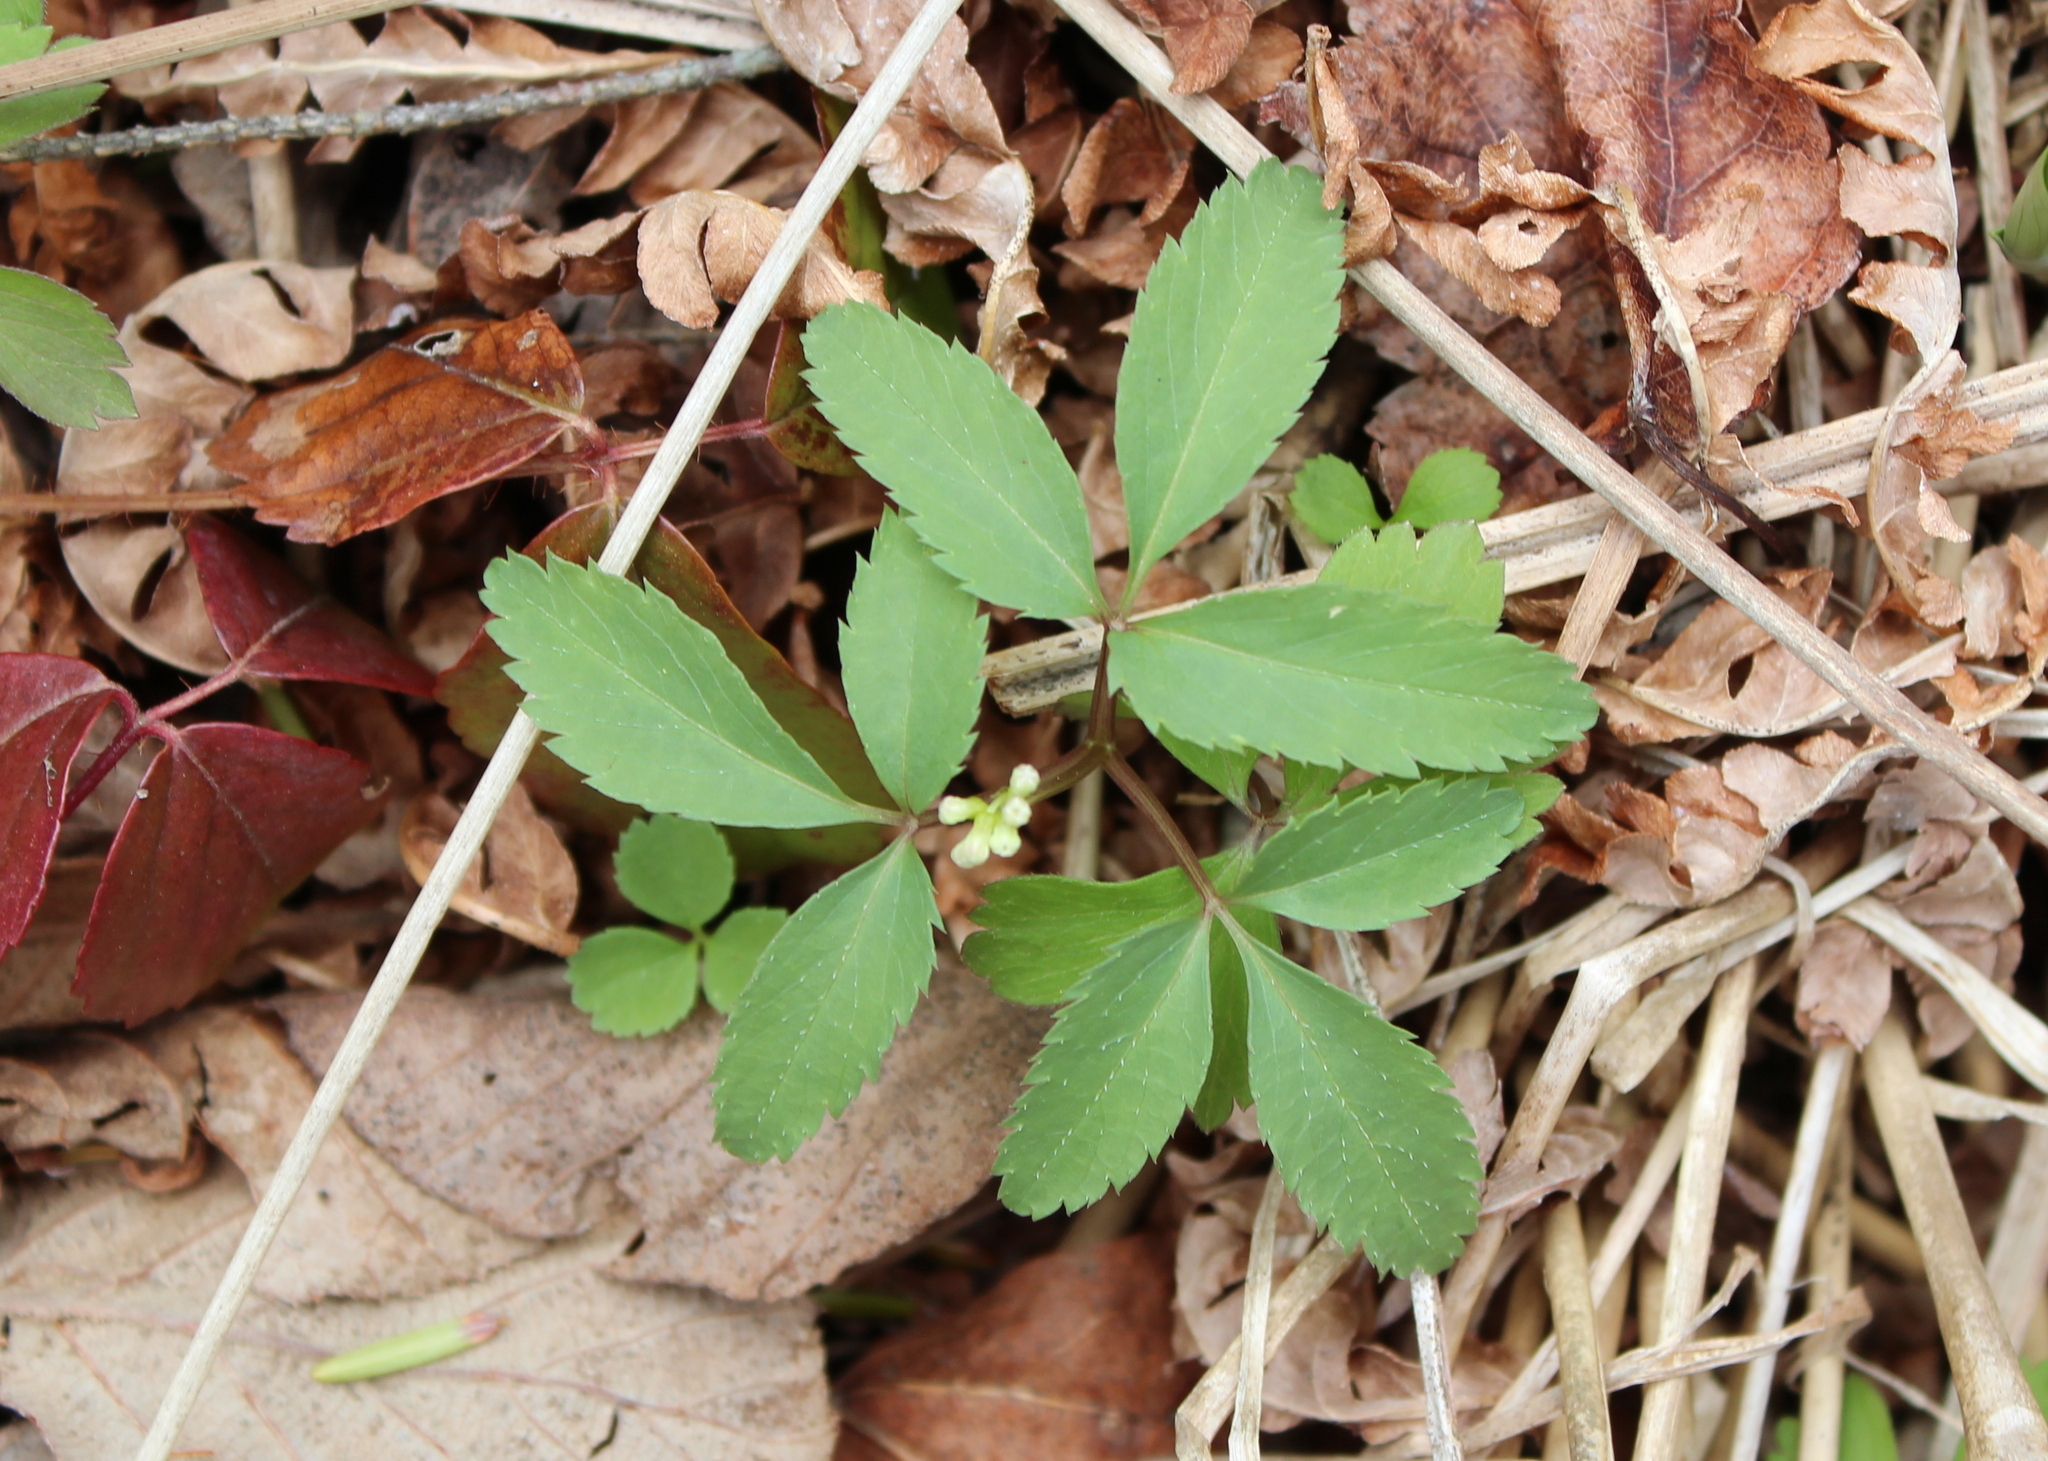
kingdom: Plantae
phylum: Tracheophyta
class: Magnoliopsida
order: Apiales
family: Araliaceae
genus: Panax
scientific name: Panax trifolius
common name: Dwarf ginseng
